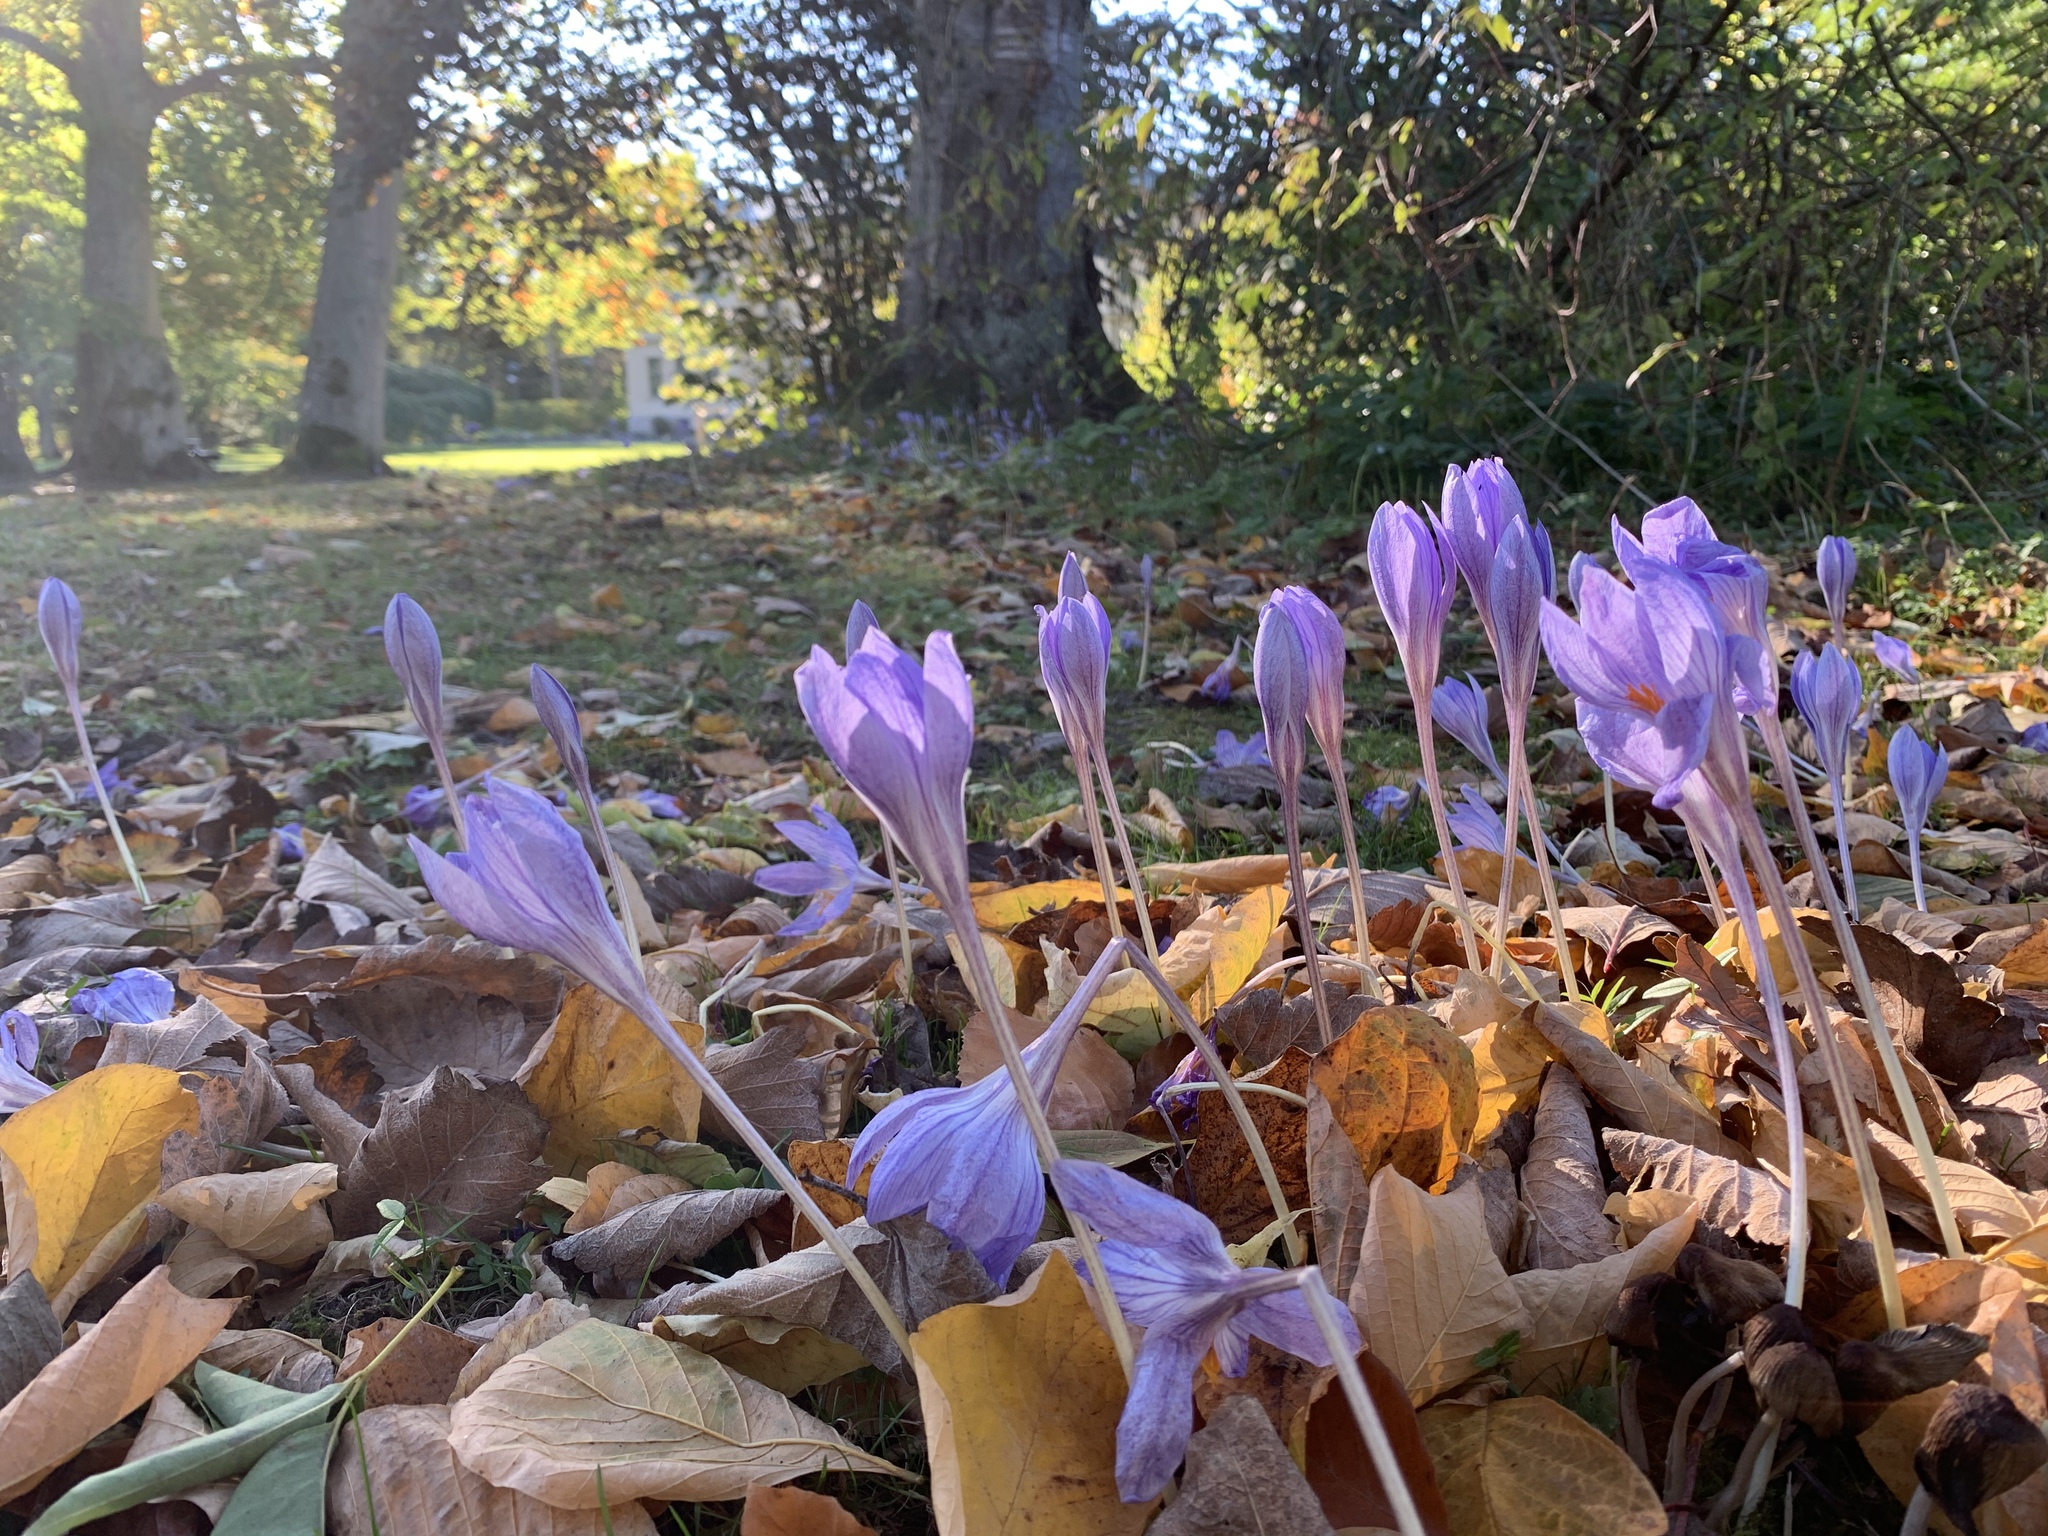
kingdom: Plantae
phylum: Tracheophyta
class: Liliopsida
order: Asparagales
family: Iridaceae
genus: Crocus
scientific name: Crocus speciosus
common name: Bieberstein's crocus
